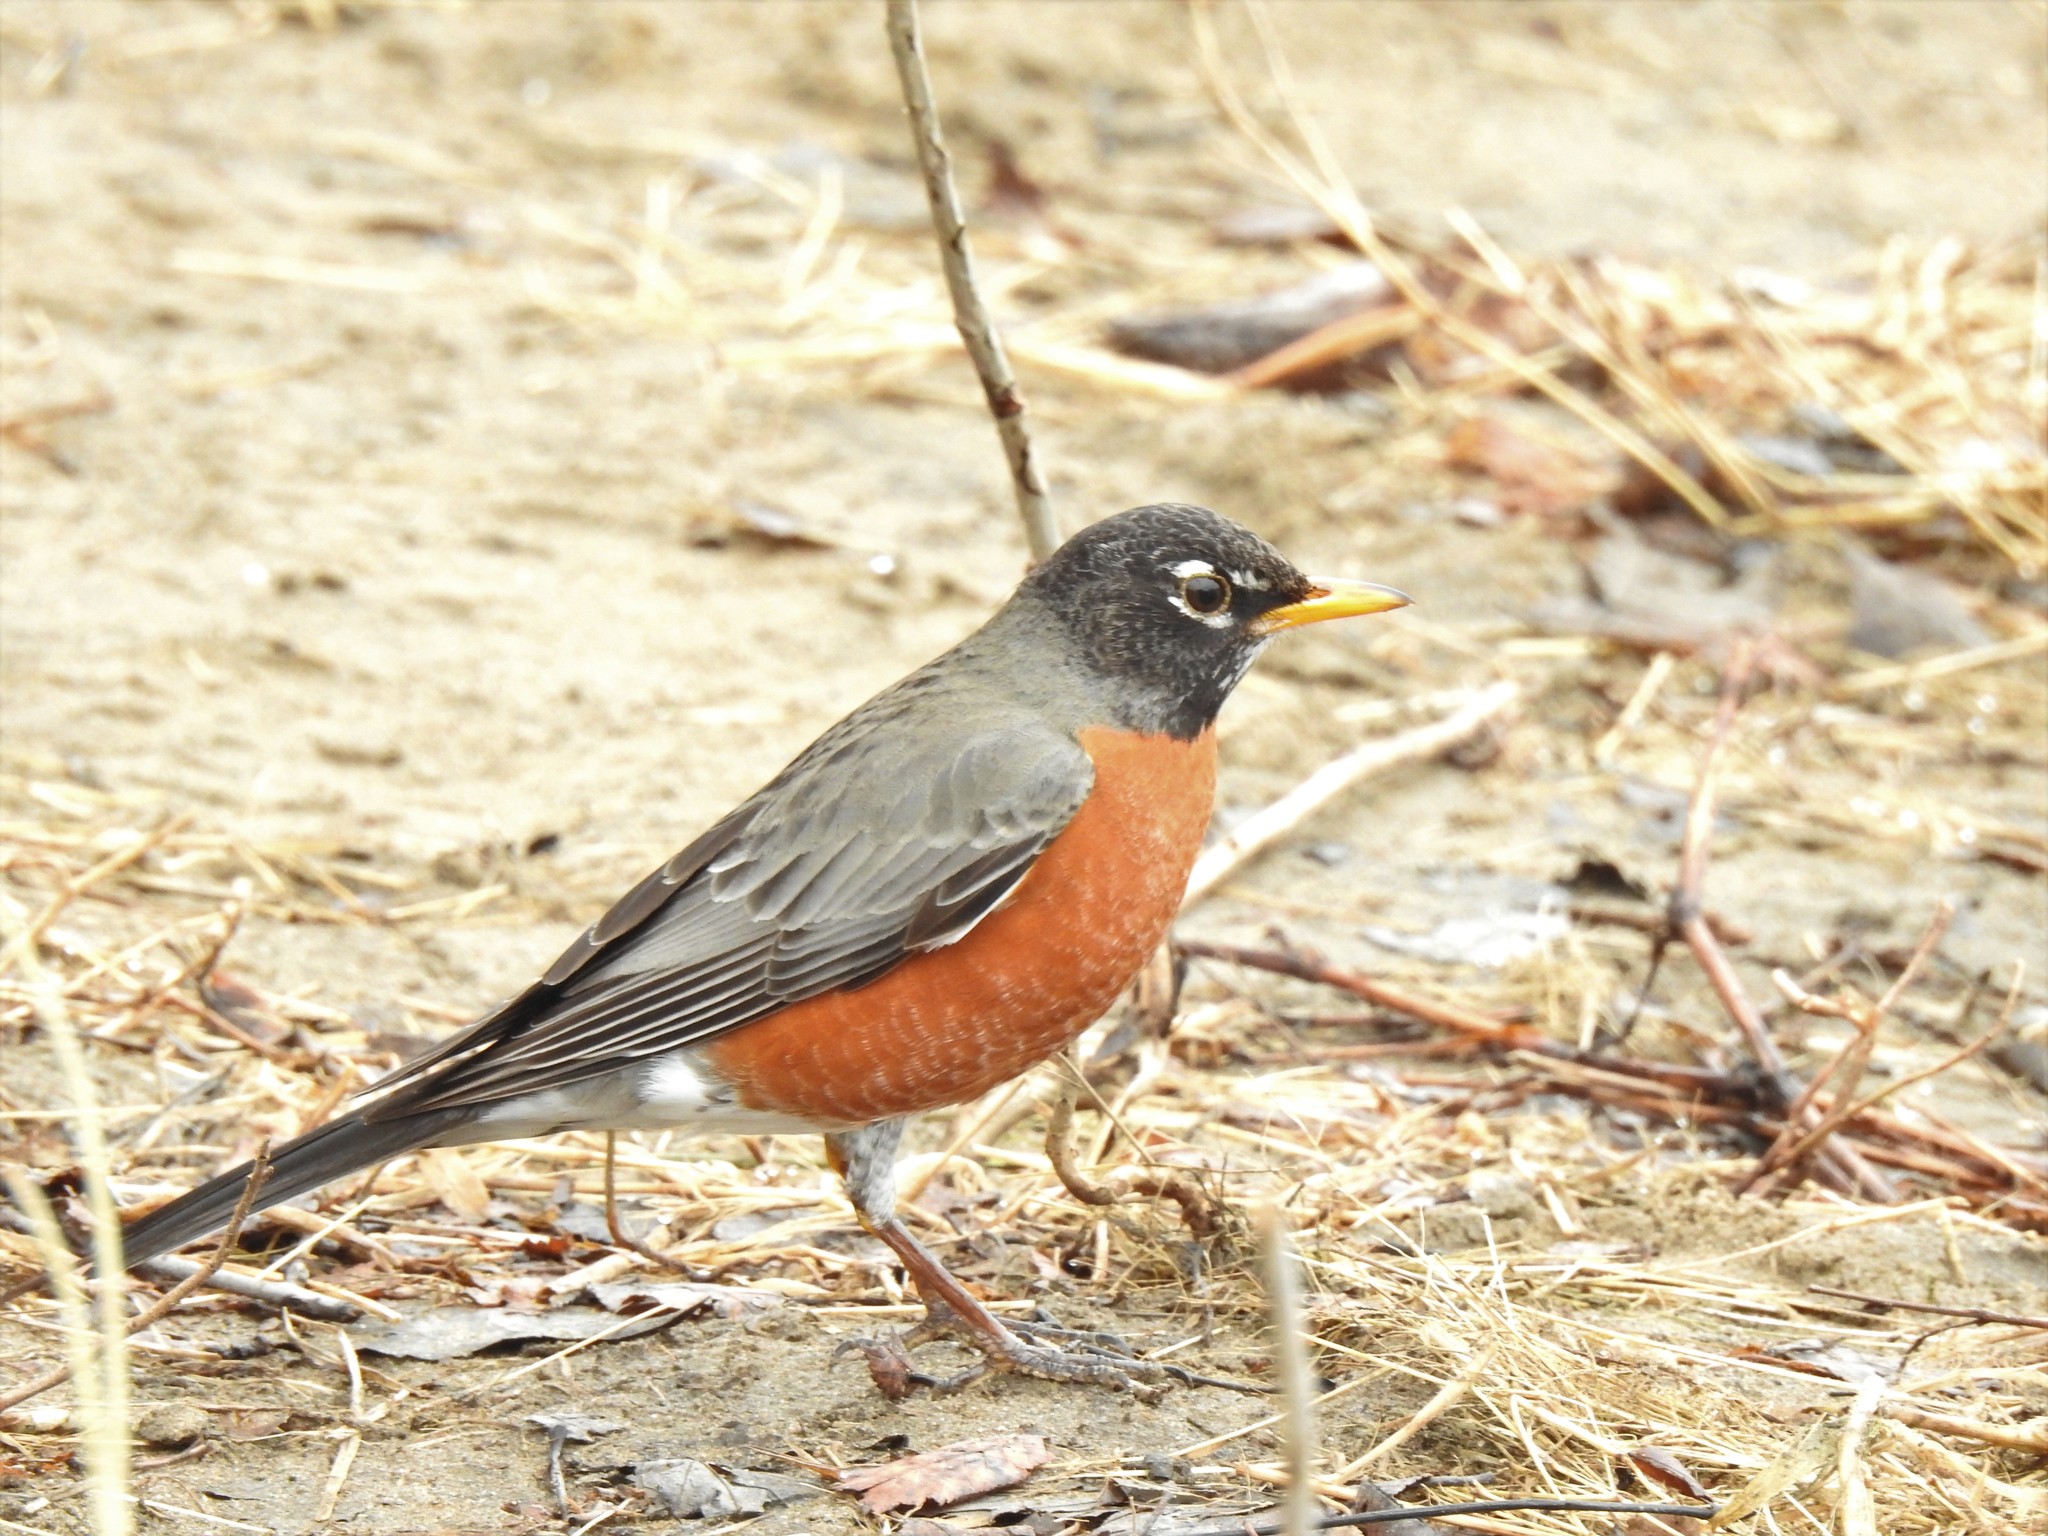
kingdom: Animalia
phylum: Chordata
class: Aves
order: Passeriformes
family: Turdidae
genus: Turdus
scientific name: Turdus migratorius
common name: American robin
